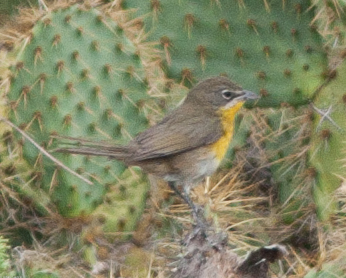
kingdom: Animalia
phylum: Chordata
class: Aves
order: Passeriformes
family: Parulidae
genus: Icteria
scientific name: Icteria virens
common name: Yellow-breasted chat
